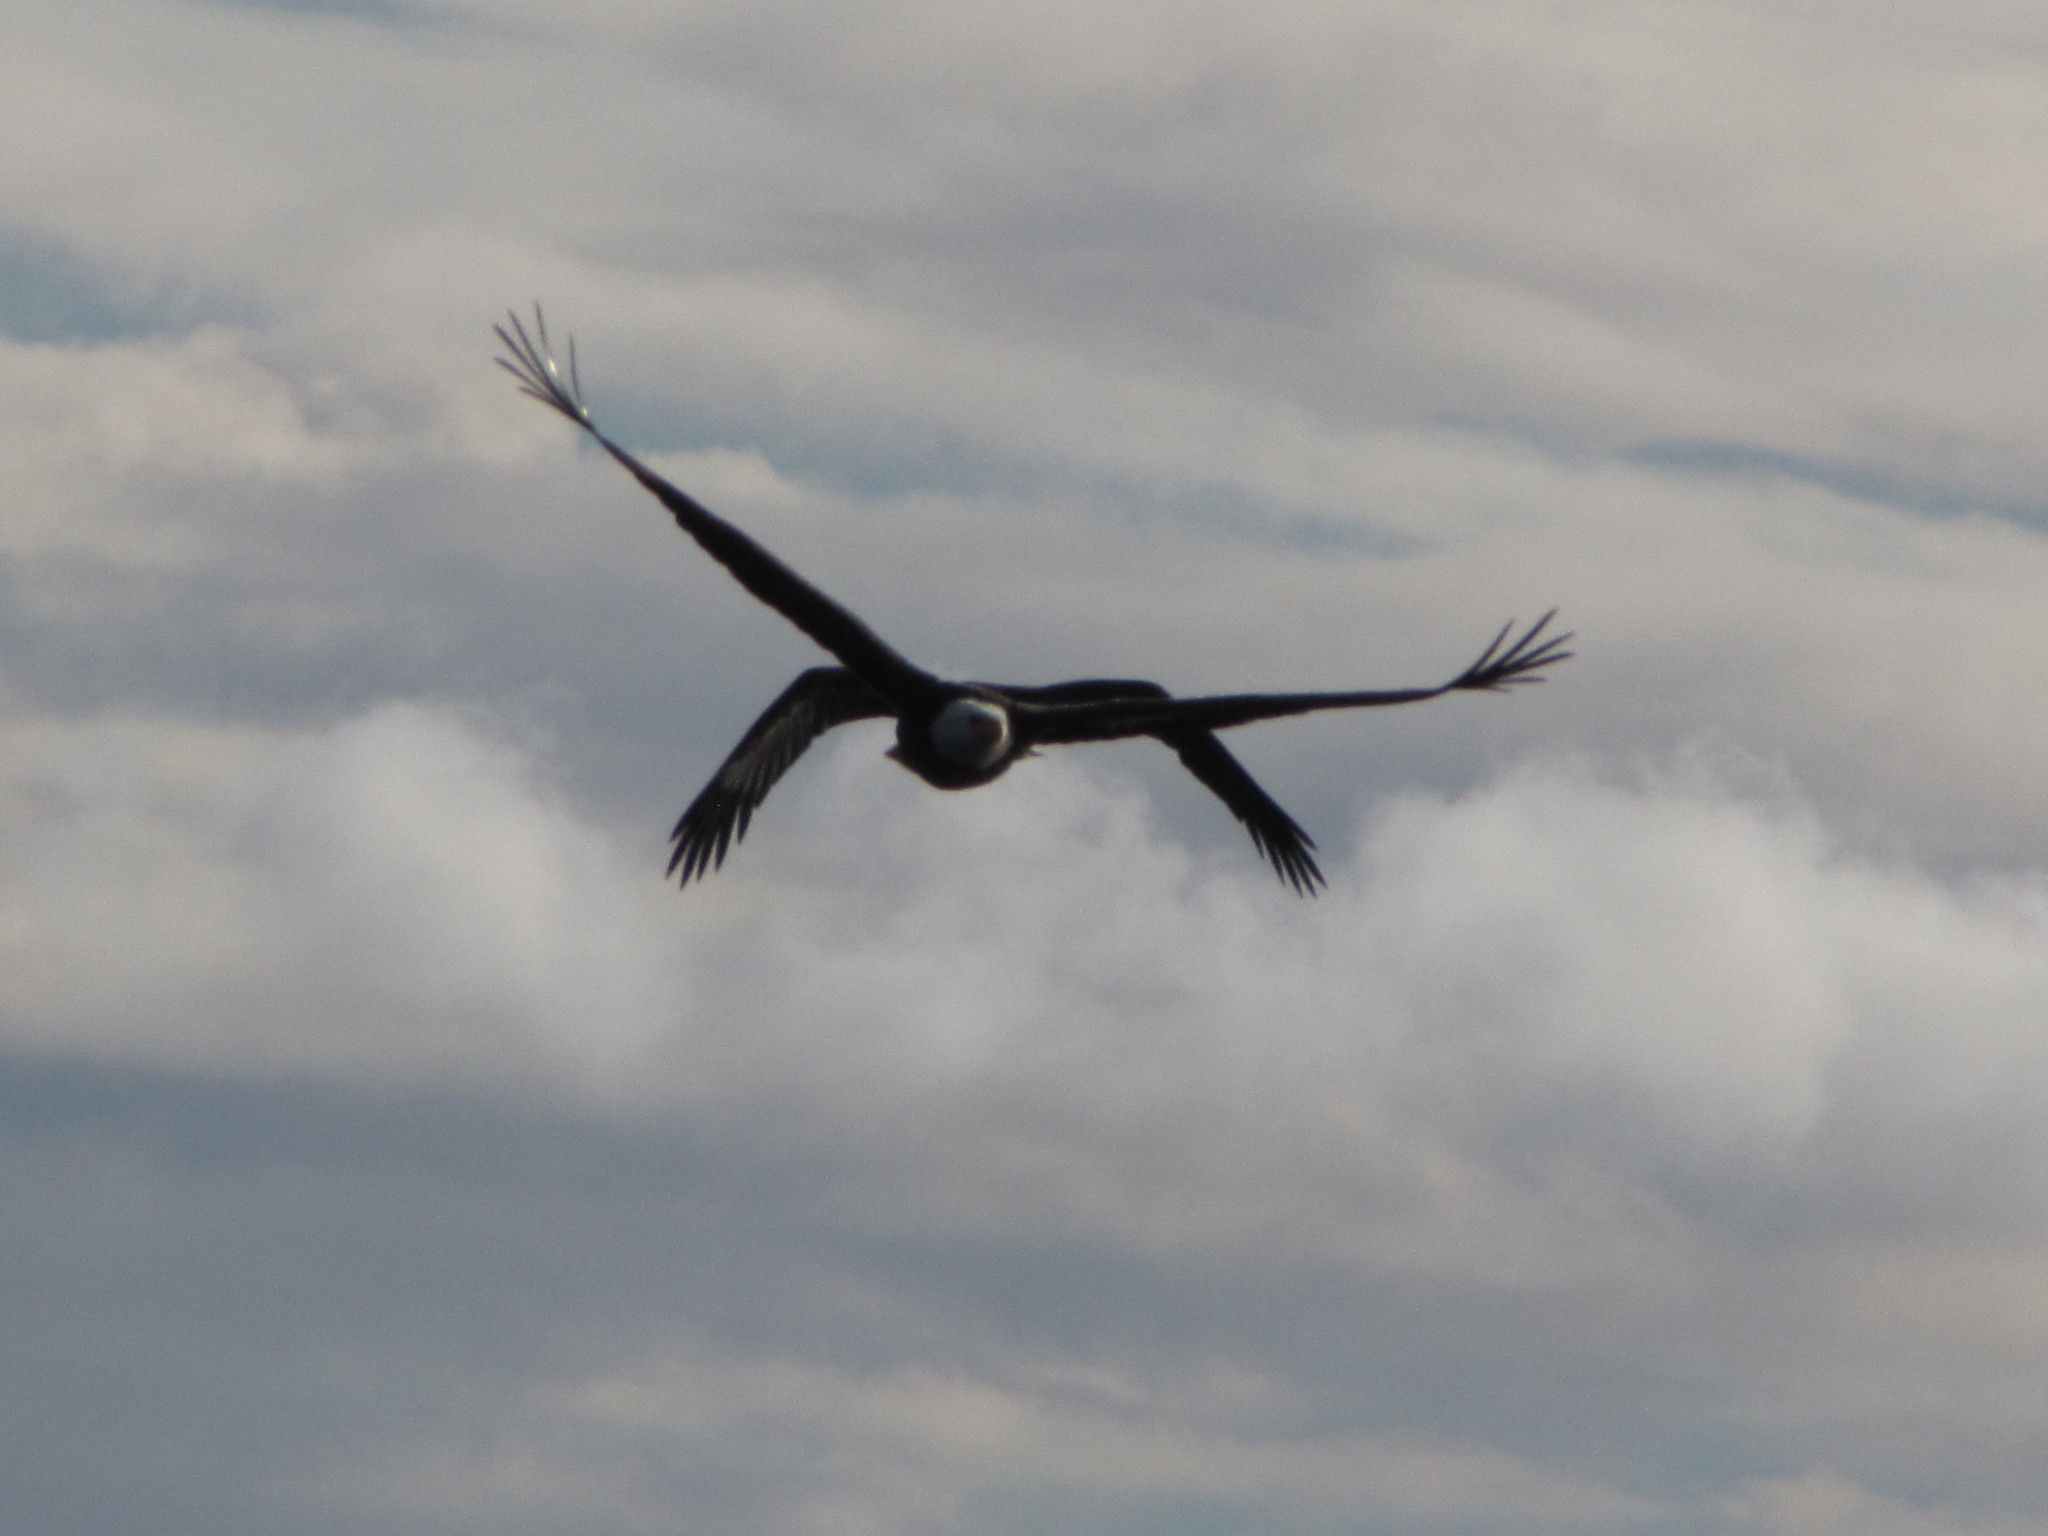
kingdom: Animalia
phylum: Chordata
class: Aves
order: Accipitriformes
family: Accipitridae
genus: Haliaeetus
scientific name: Haliaeetus leucocephalus
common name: Bald eagle
